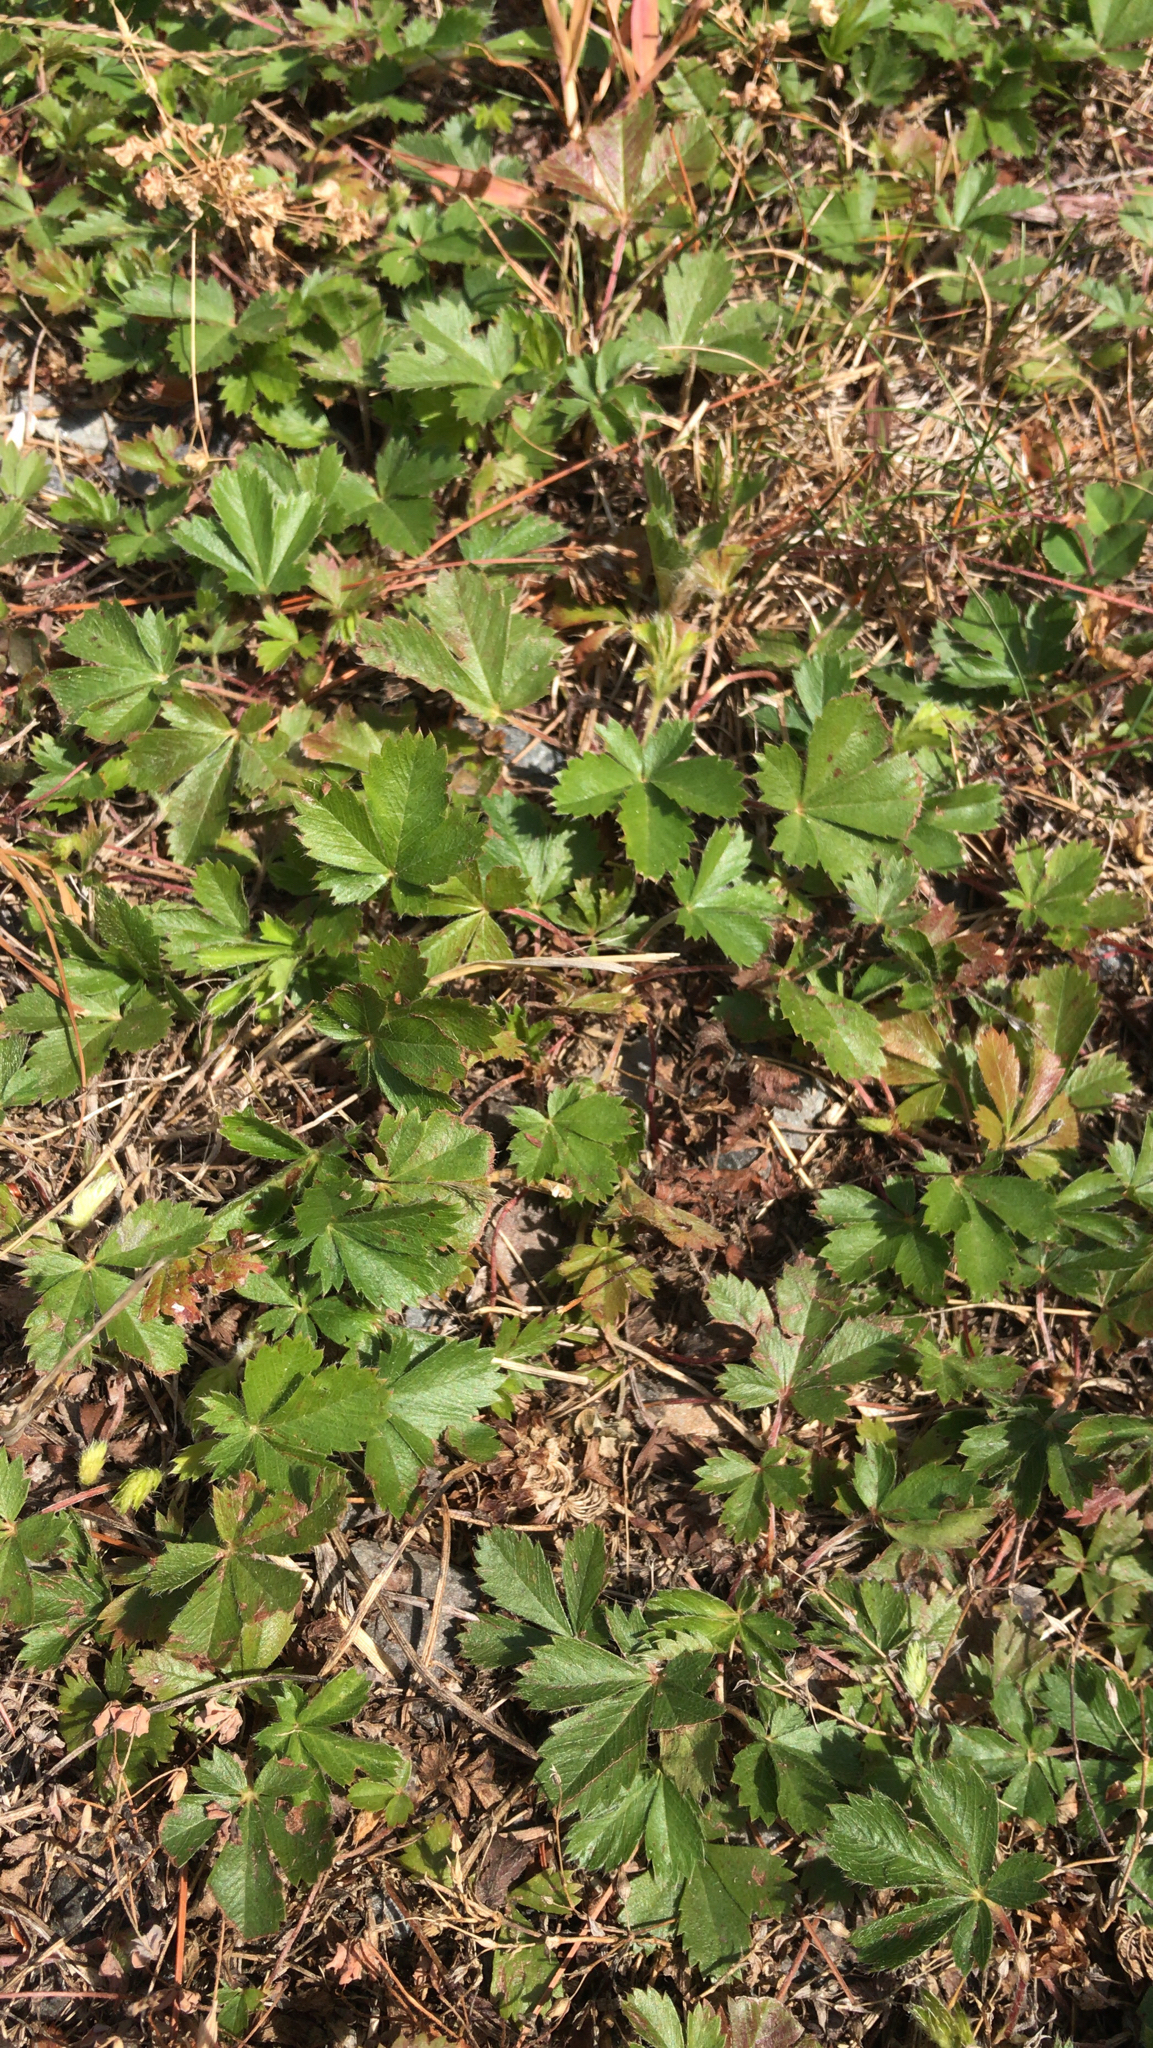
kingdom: Plantae
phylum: Tracheophyta
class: Magnoliopsida
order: Rosales
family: Rosaceae
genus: Potentilla
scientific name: Potentilla canadensis
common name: Canada cinquefoil
